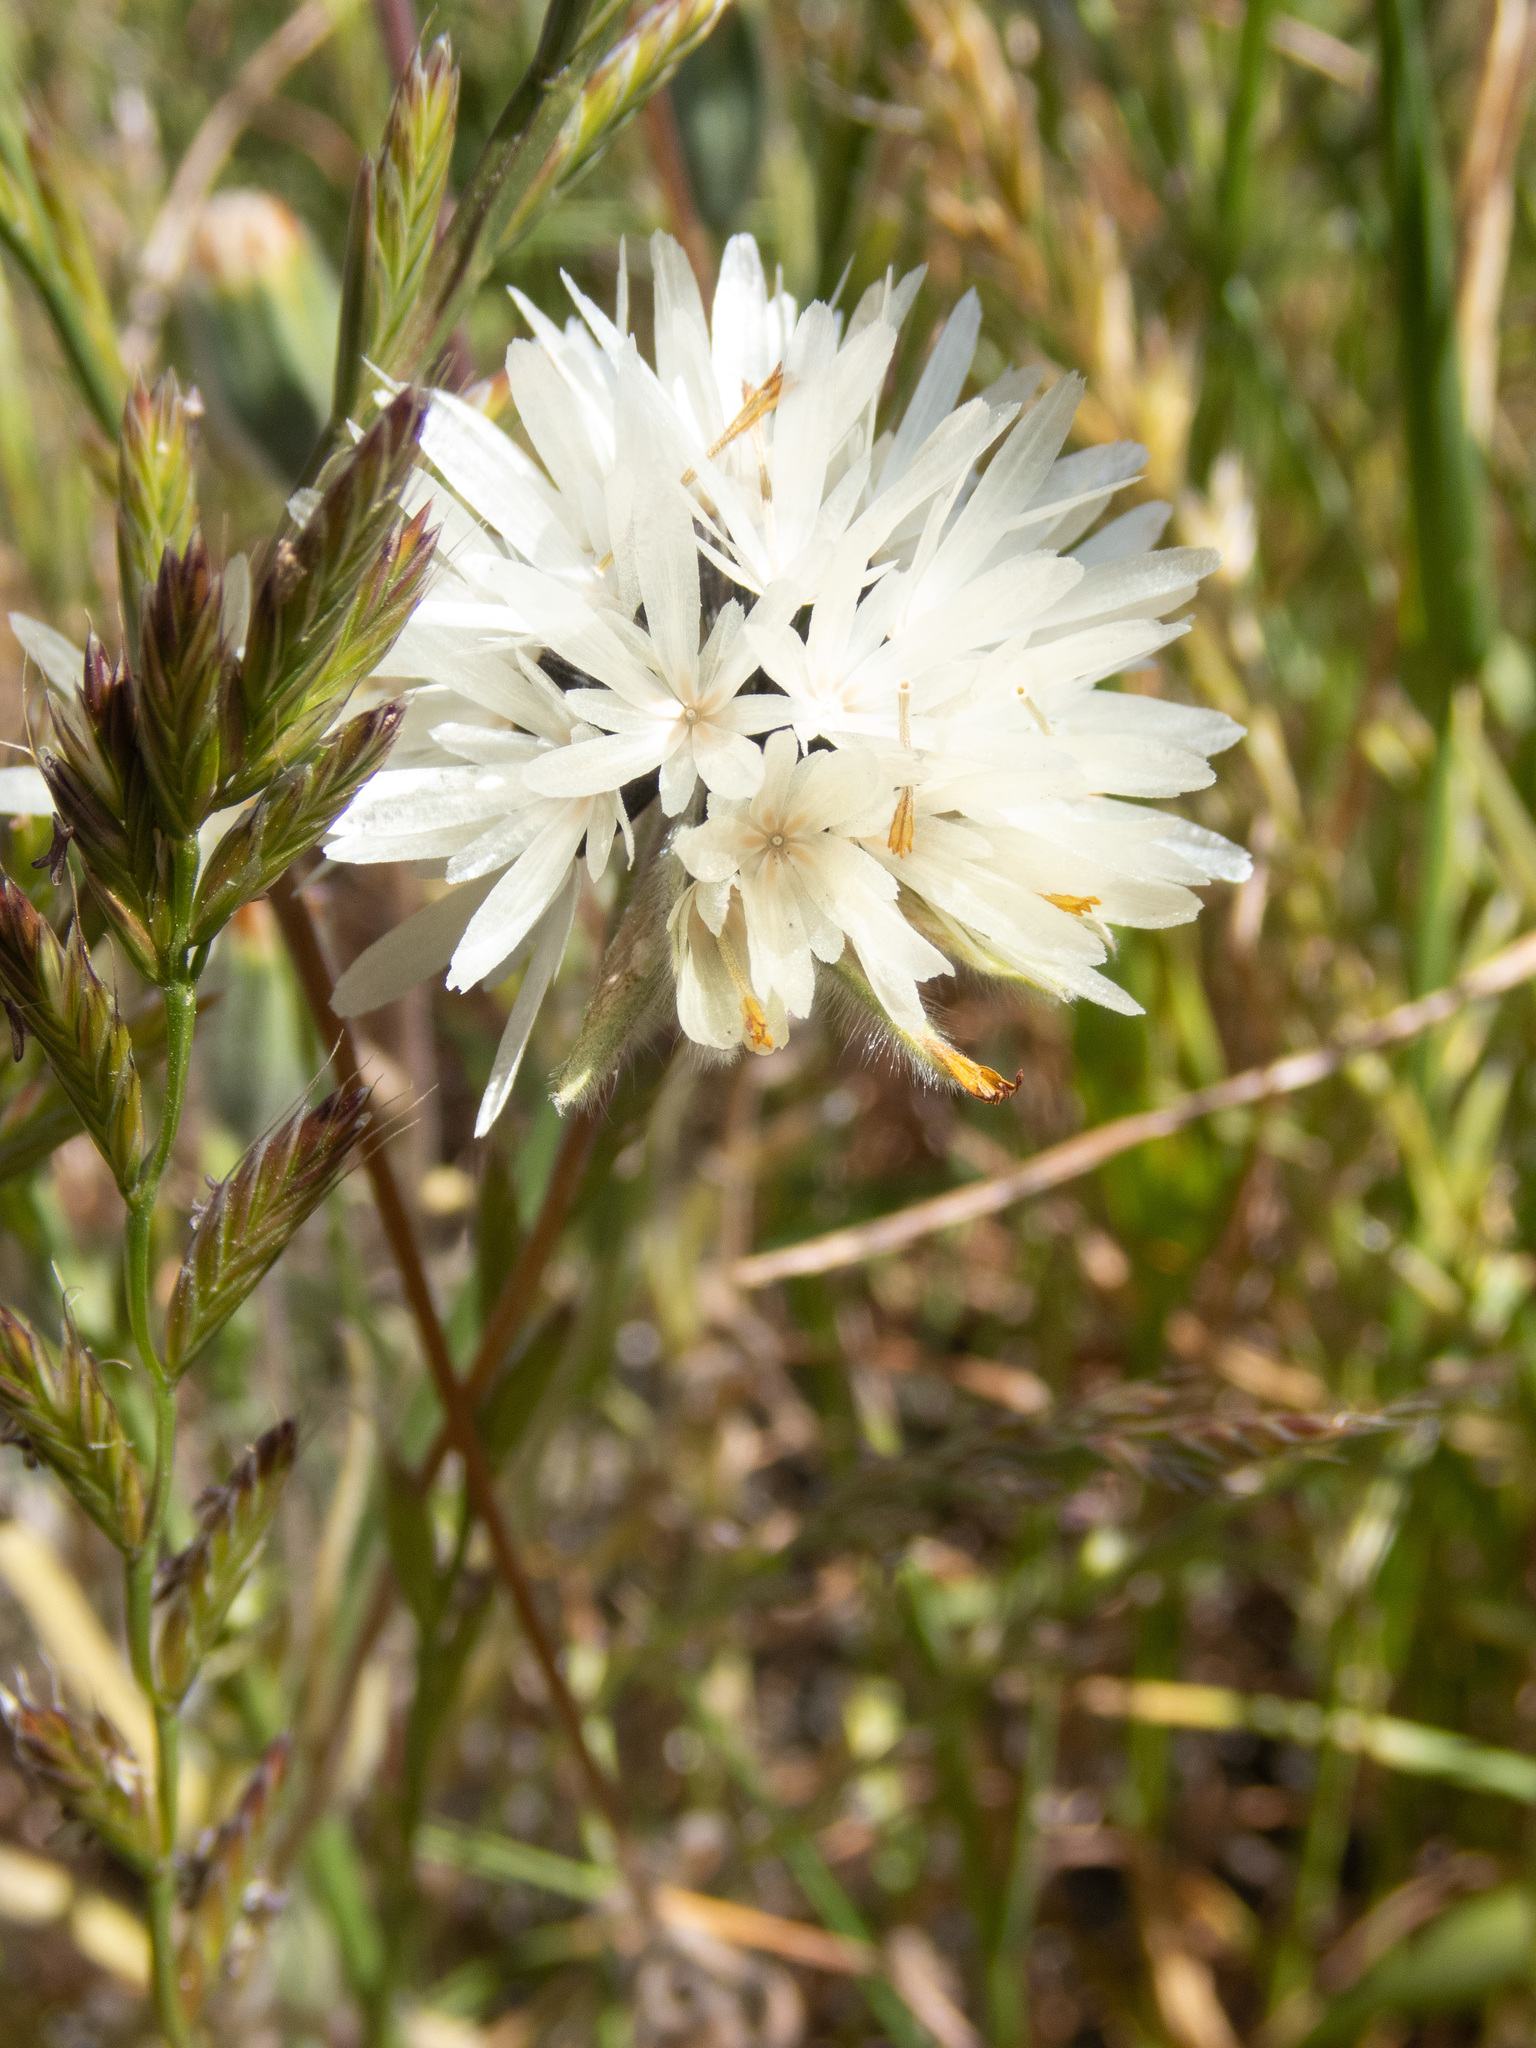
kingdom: Plantae
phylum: Tracheophyta
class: Magnoliopsida
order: Asterales
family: Asteraceae
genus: Achyrachaena
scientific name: Achyrachaena mollis
